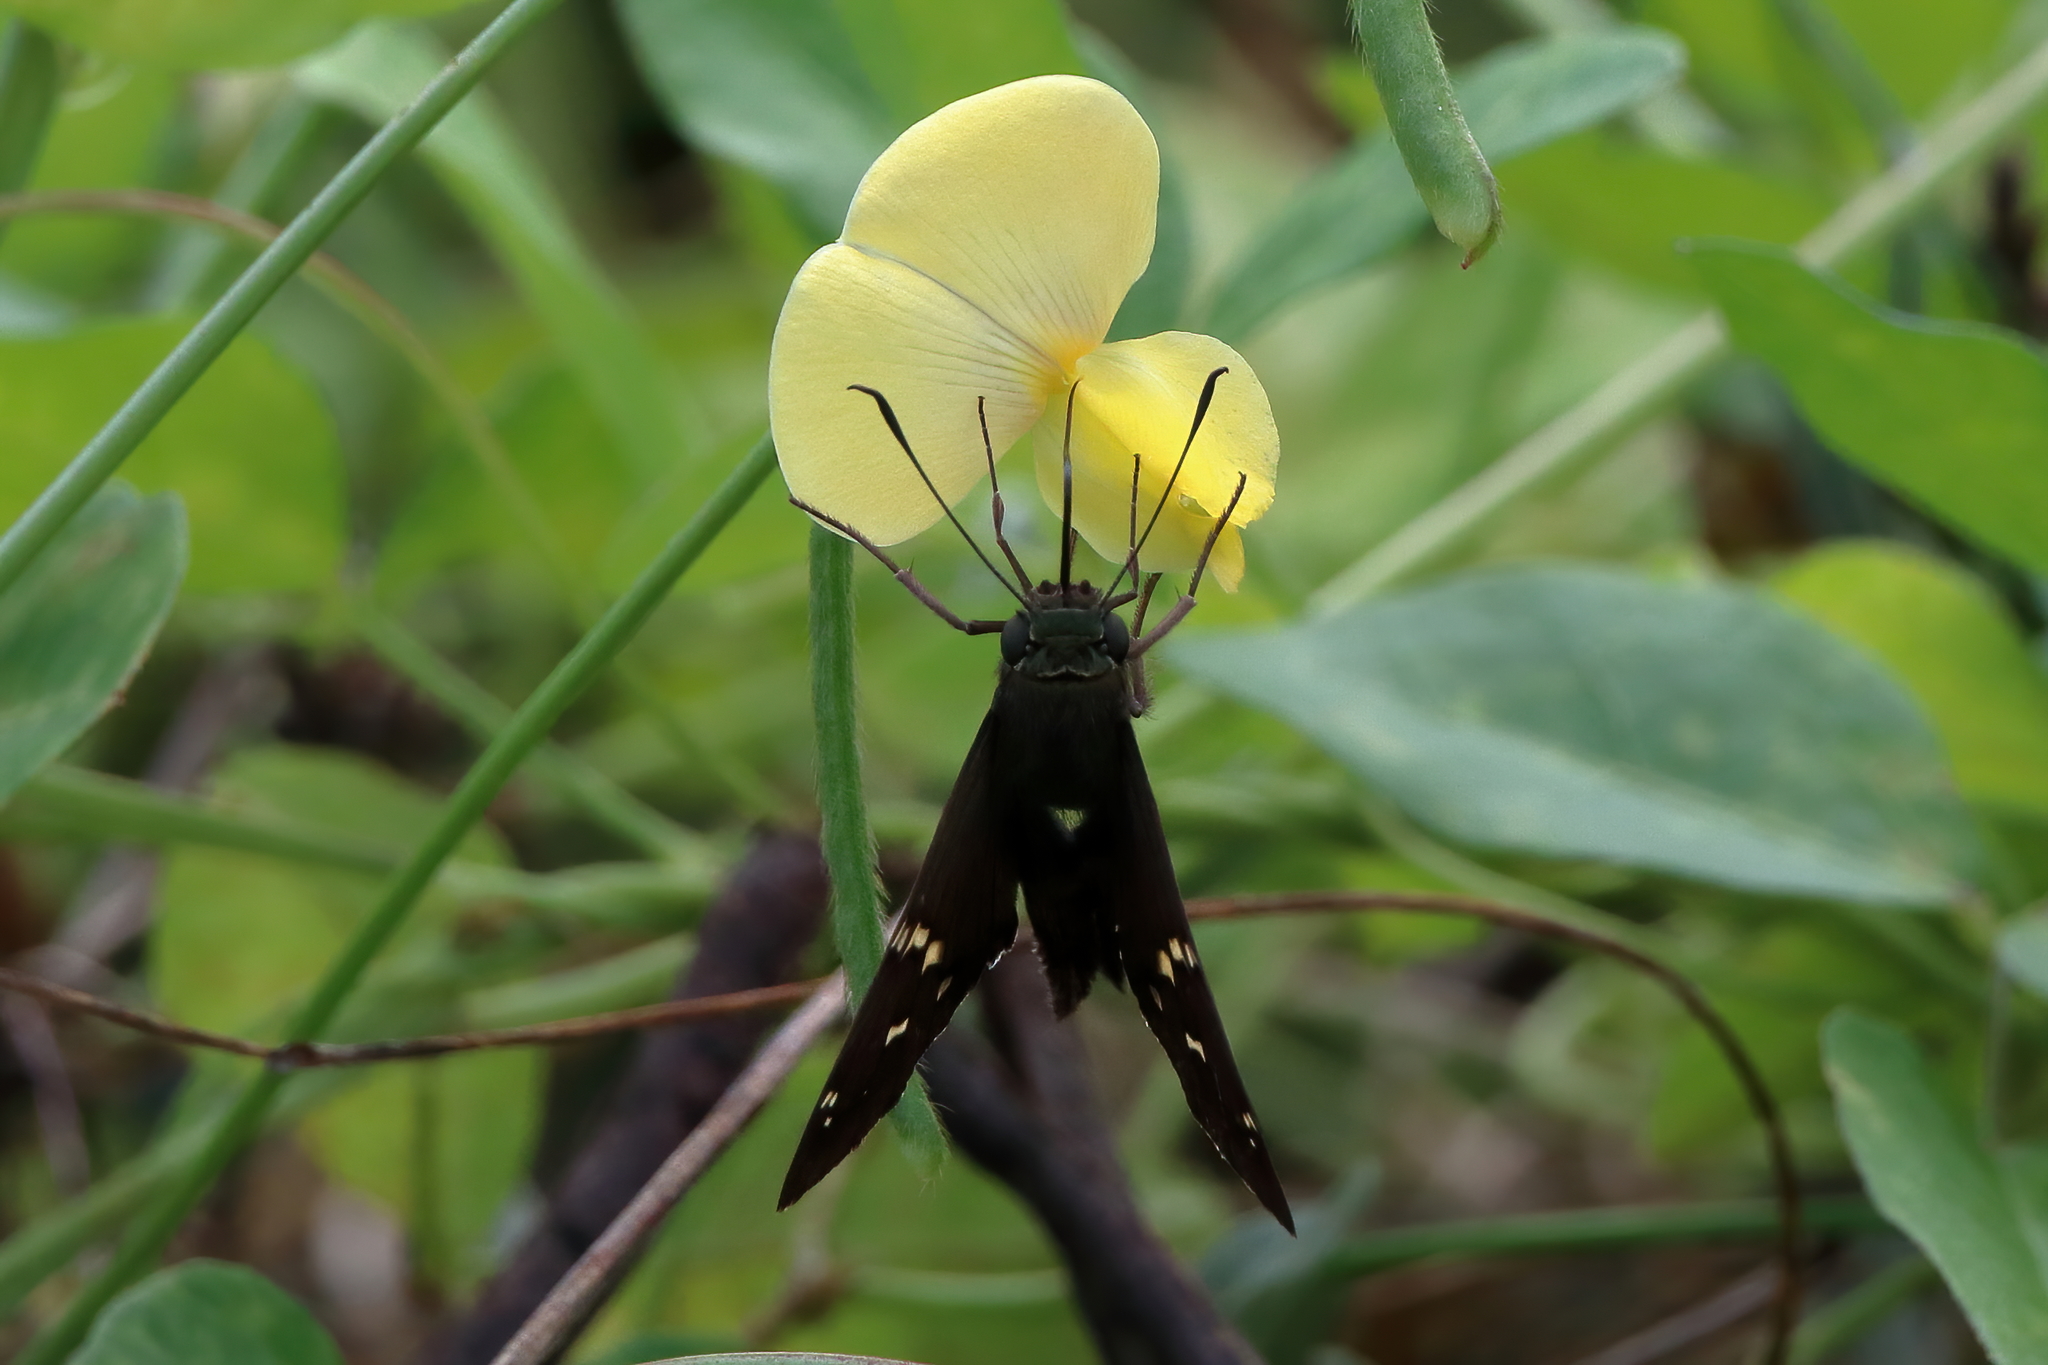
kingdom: Animalia
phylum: Arthropoda
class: Insecta
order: Lepidoptera
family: Hesperiidae
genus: Thorybes
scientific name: Thorybes
